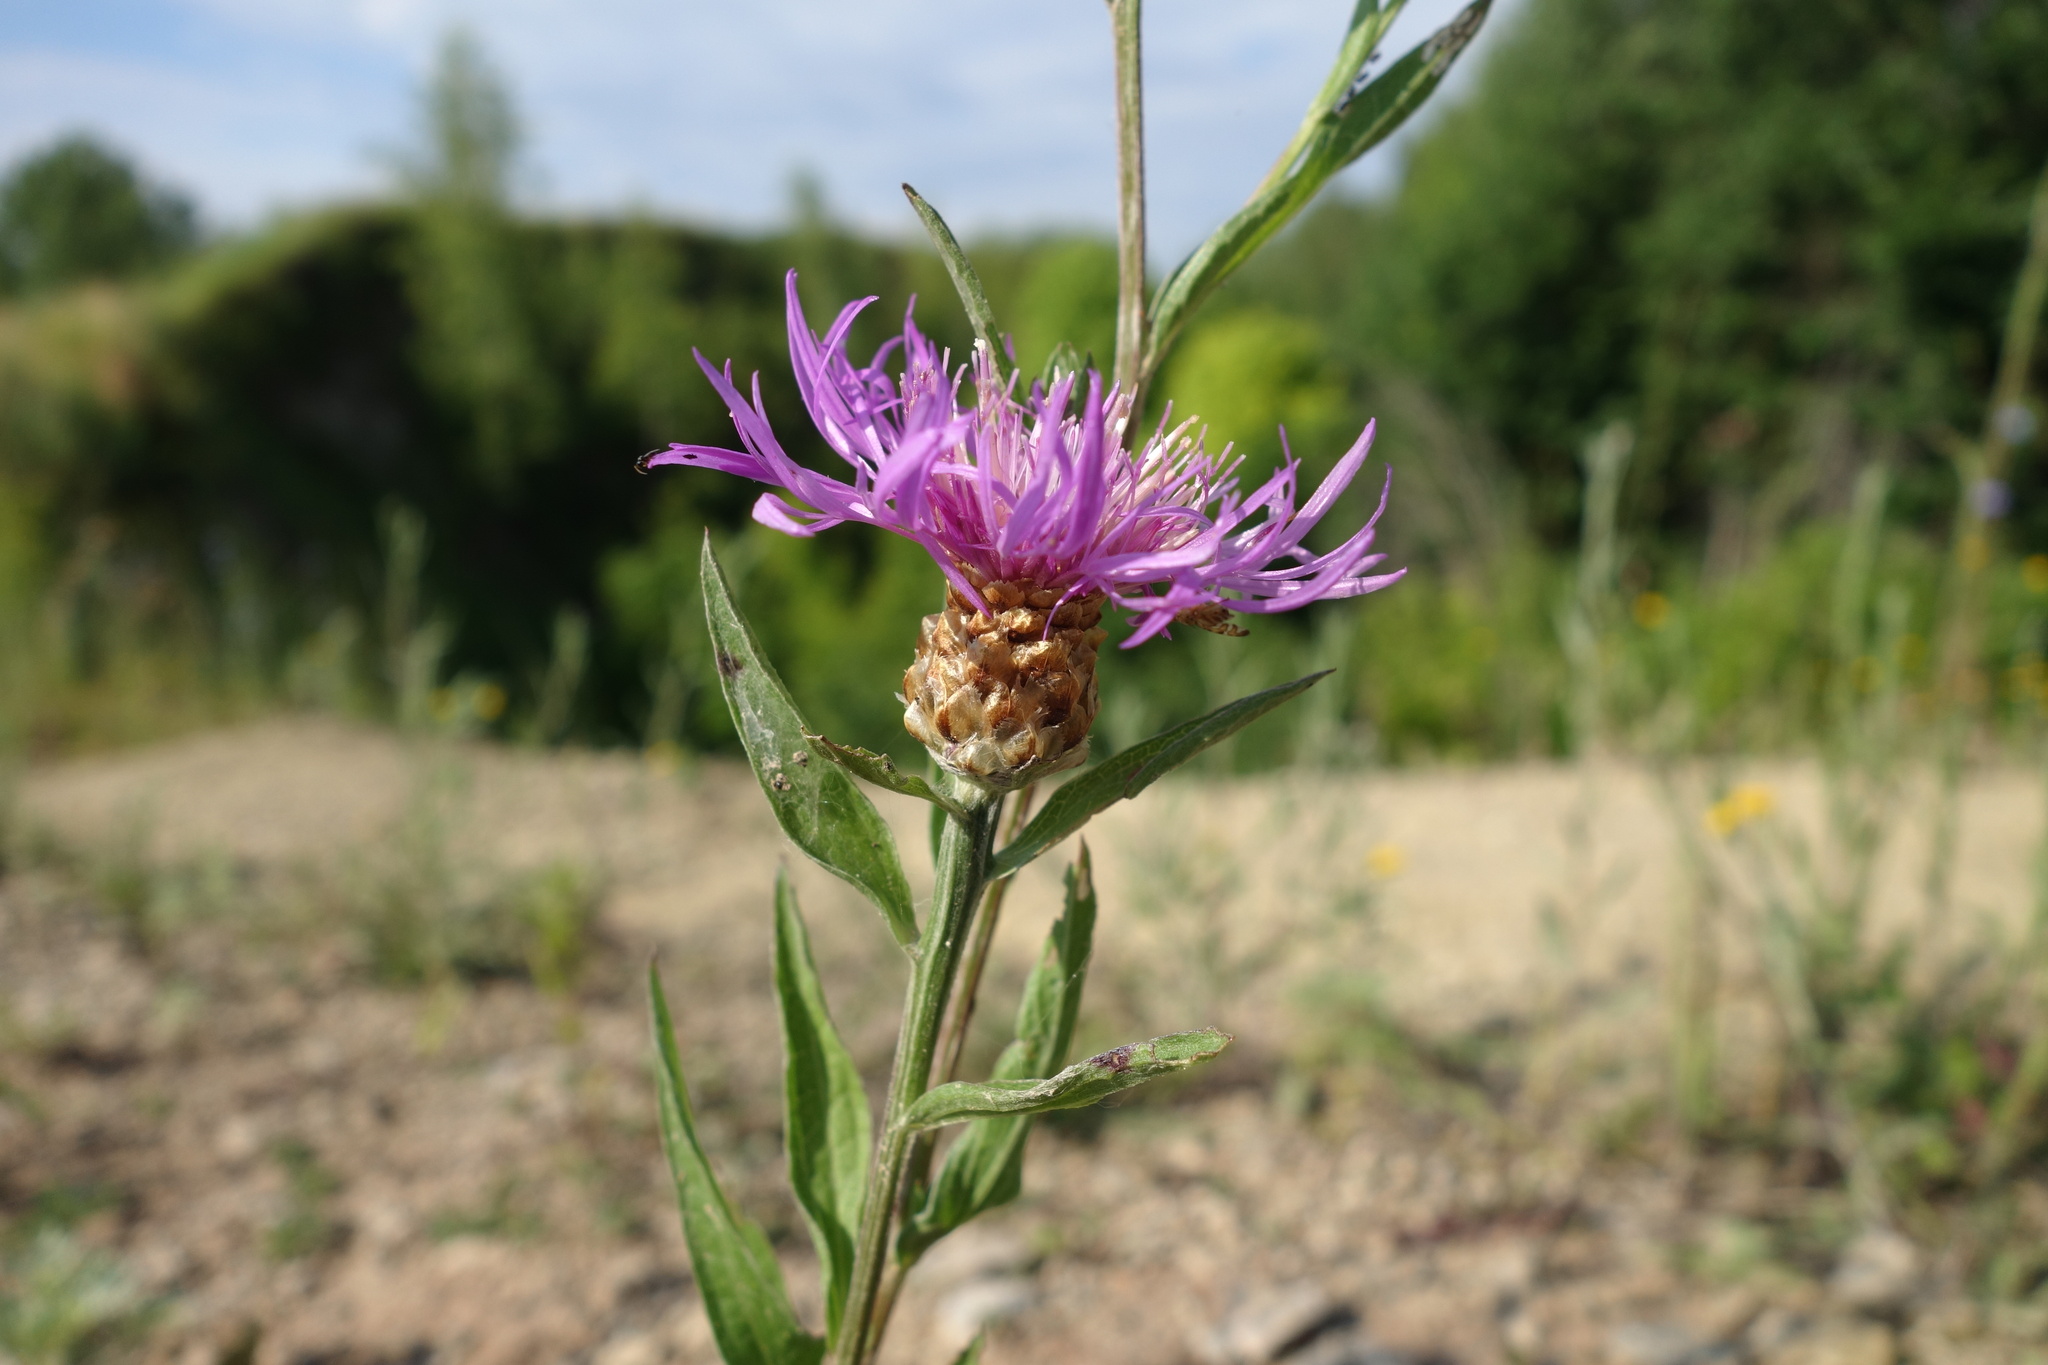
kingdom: Plantae
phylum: Tracheophyta
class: Magnoliopsida
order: Asterales
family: Asteraceae
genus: Centaurea
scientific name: Centaurea jacea
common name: Brown knapweed
